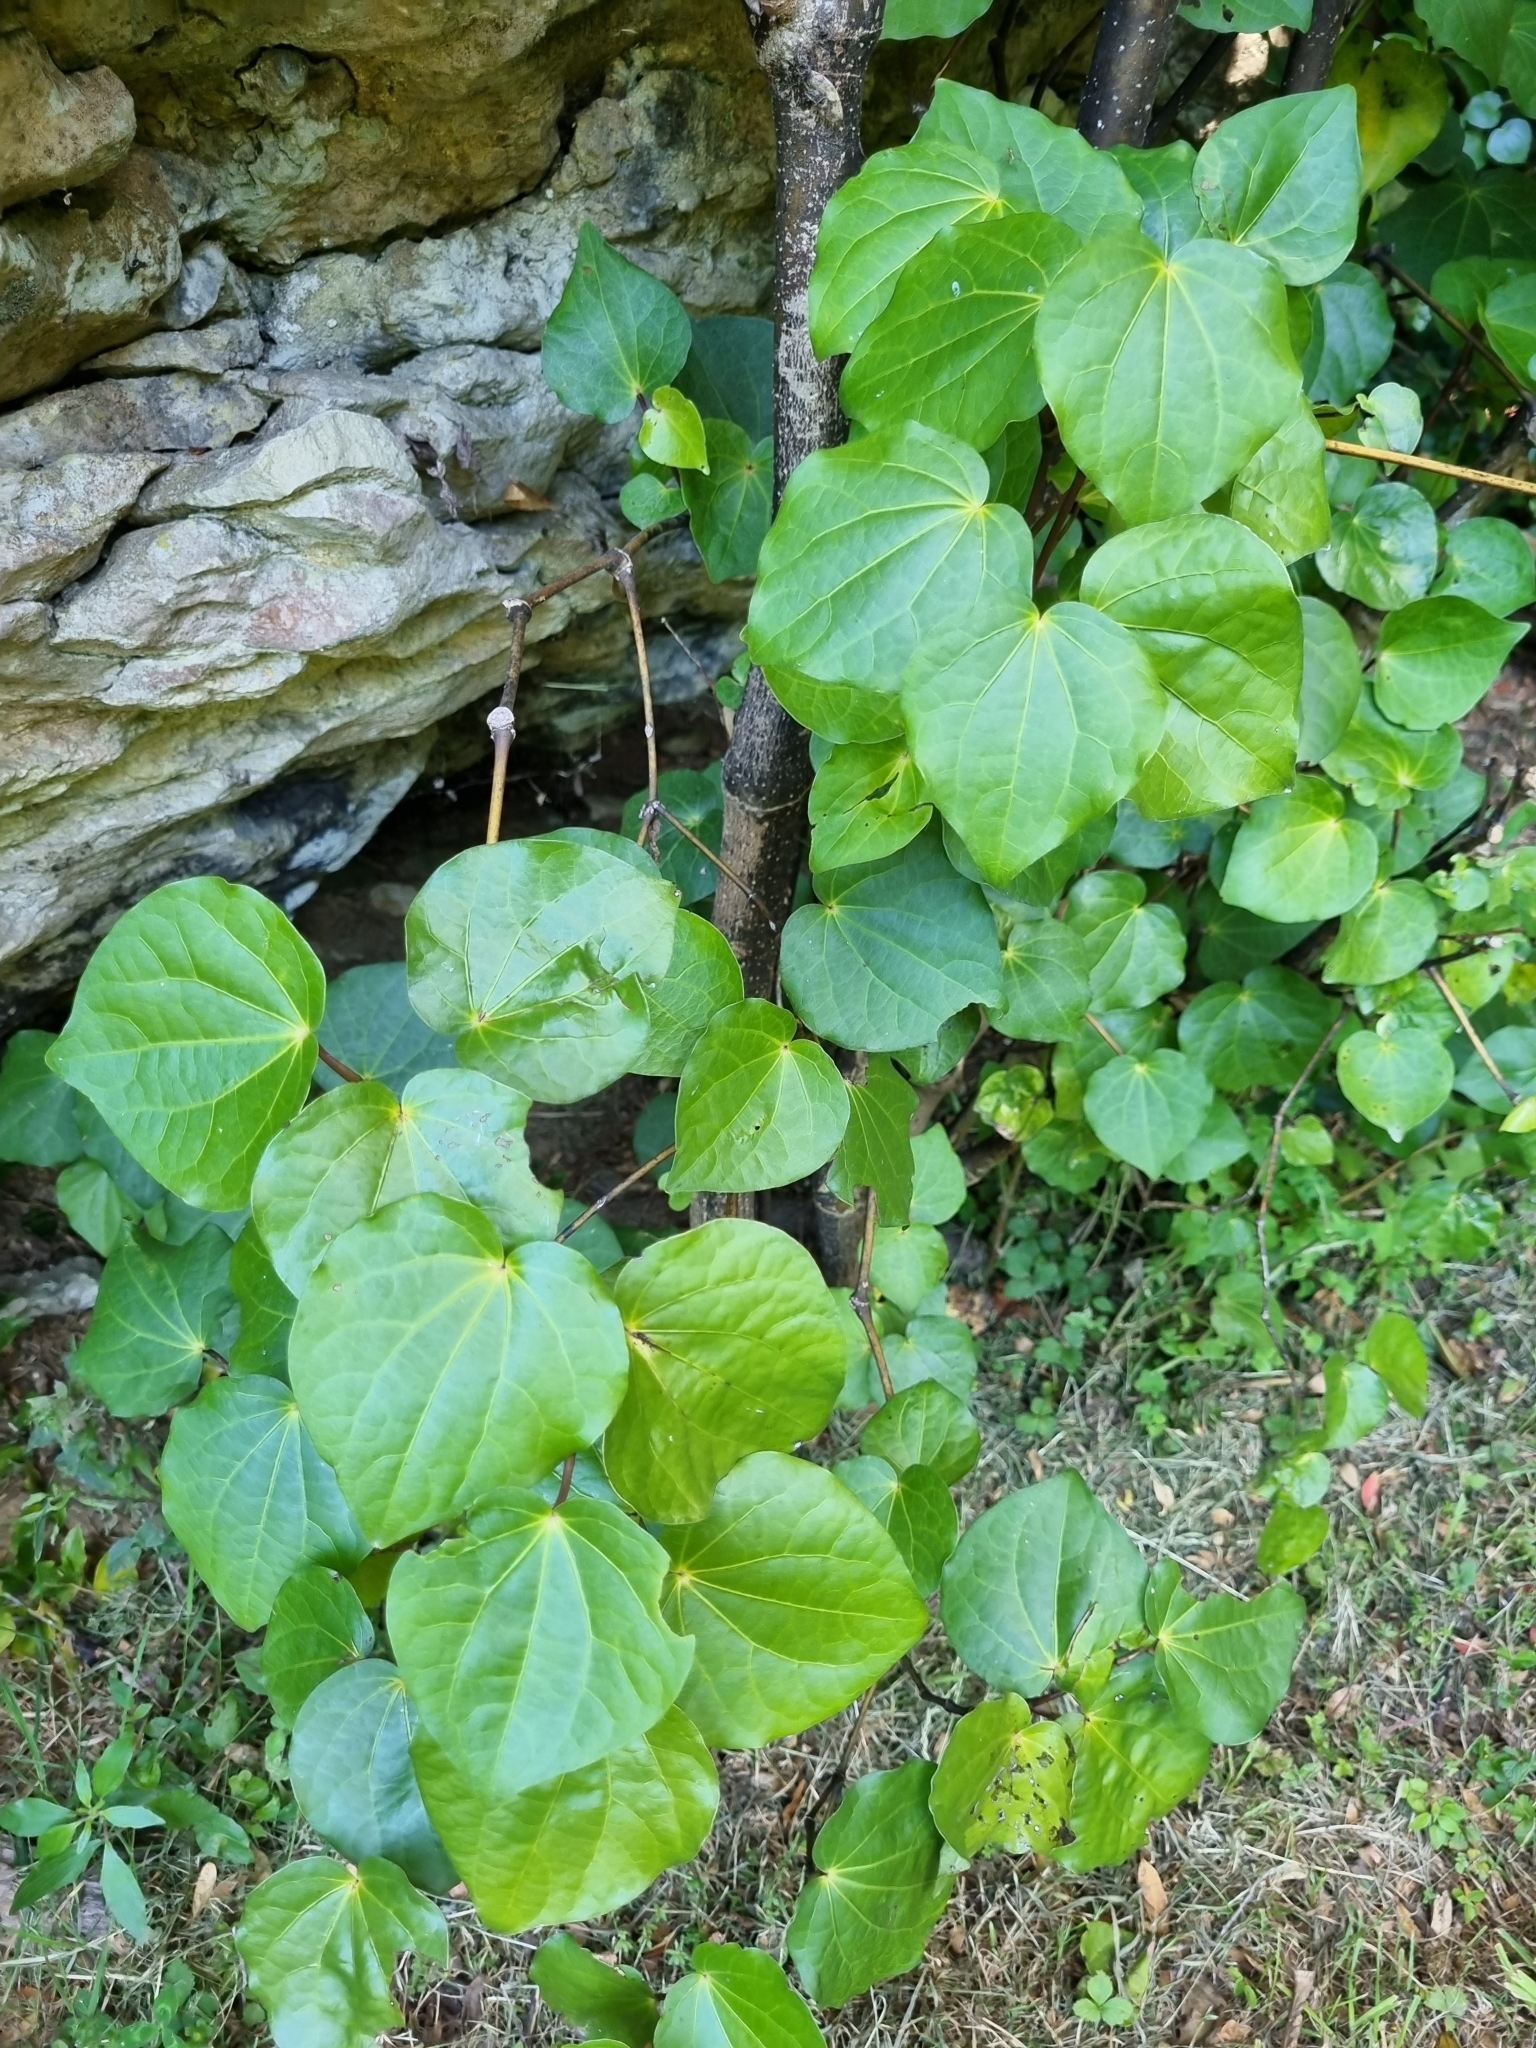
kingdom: Plantae
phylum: Tracheophyta
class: Magnoliopsida
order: Piperales
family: Piperaceae
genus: Macropiper
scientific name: Macropiper excelsum
